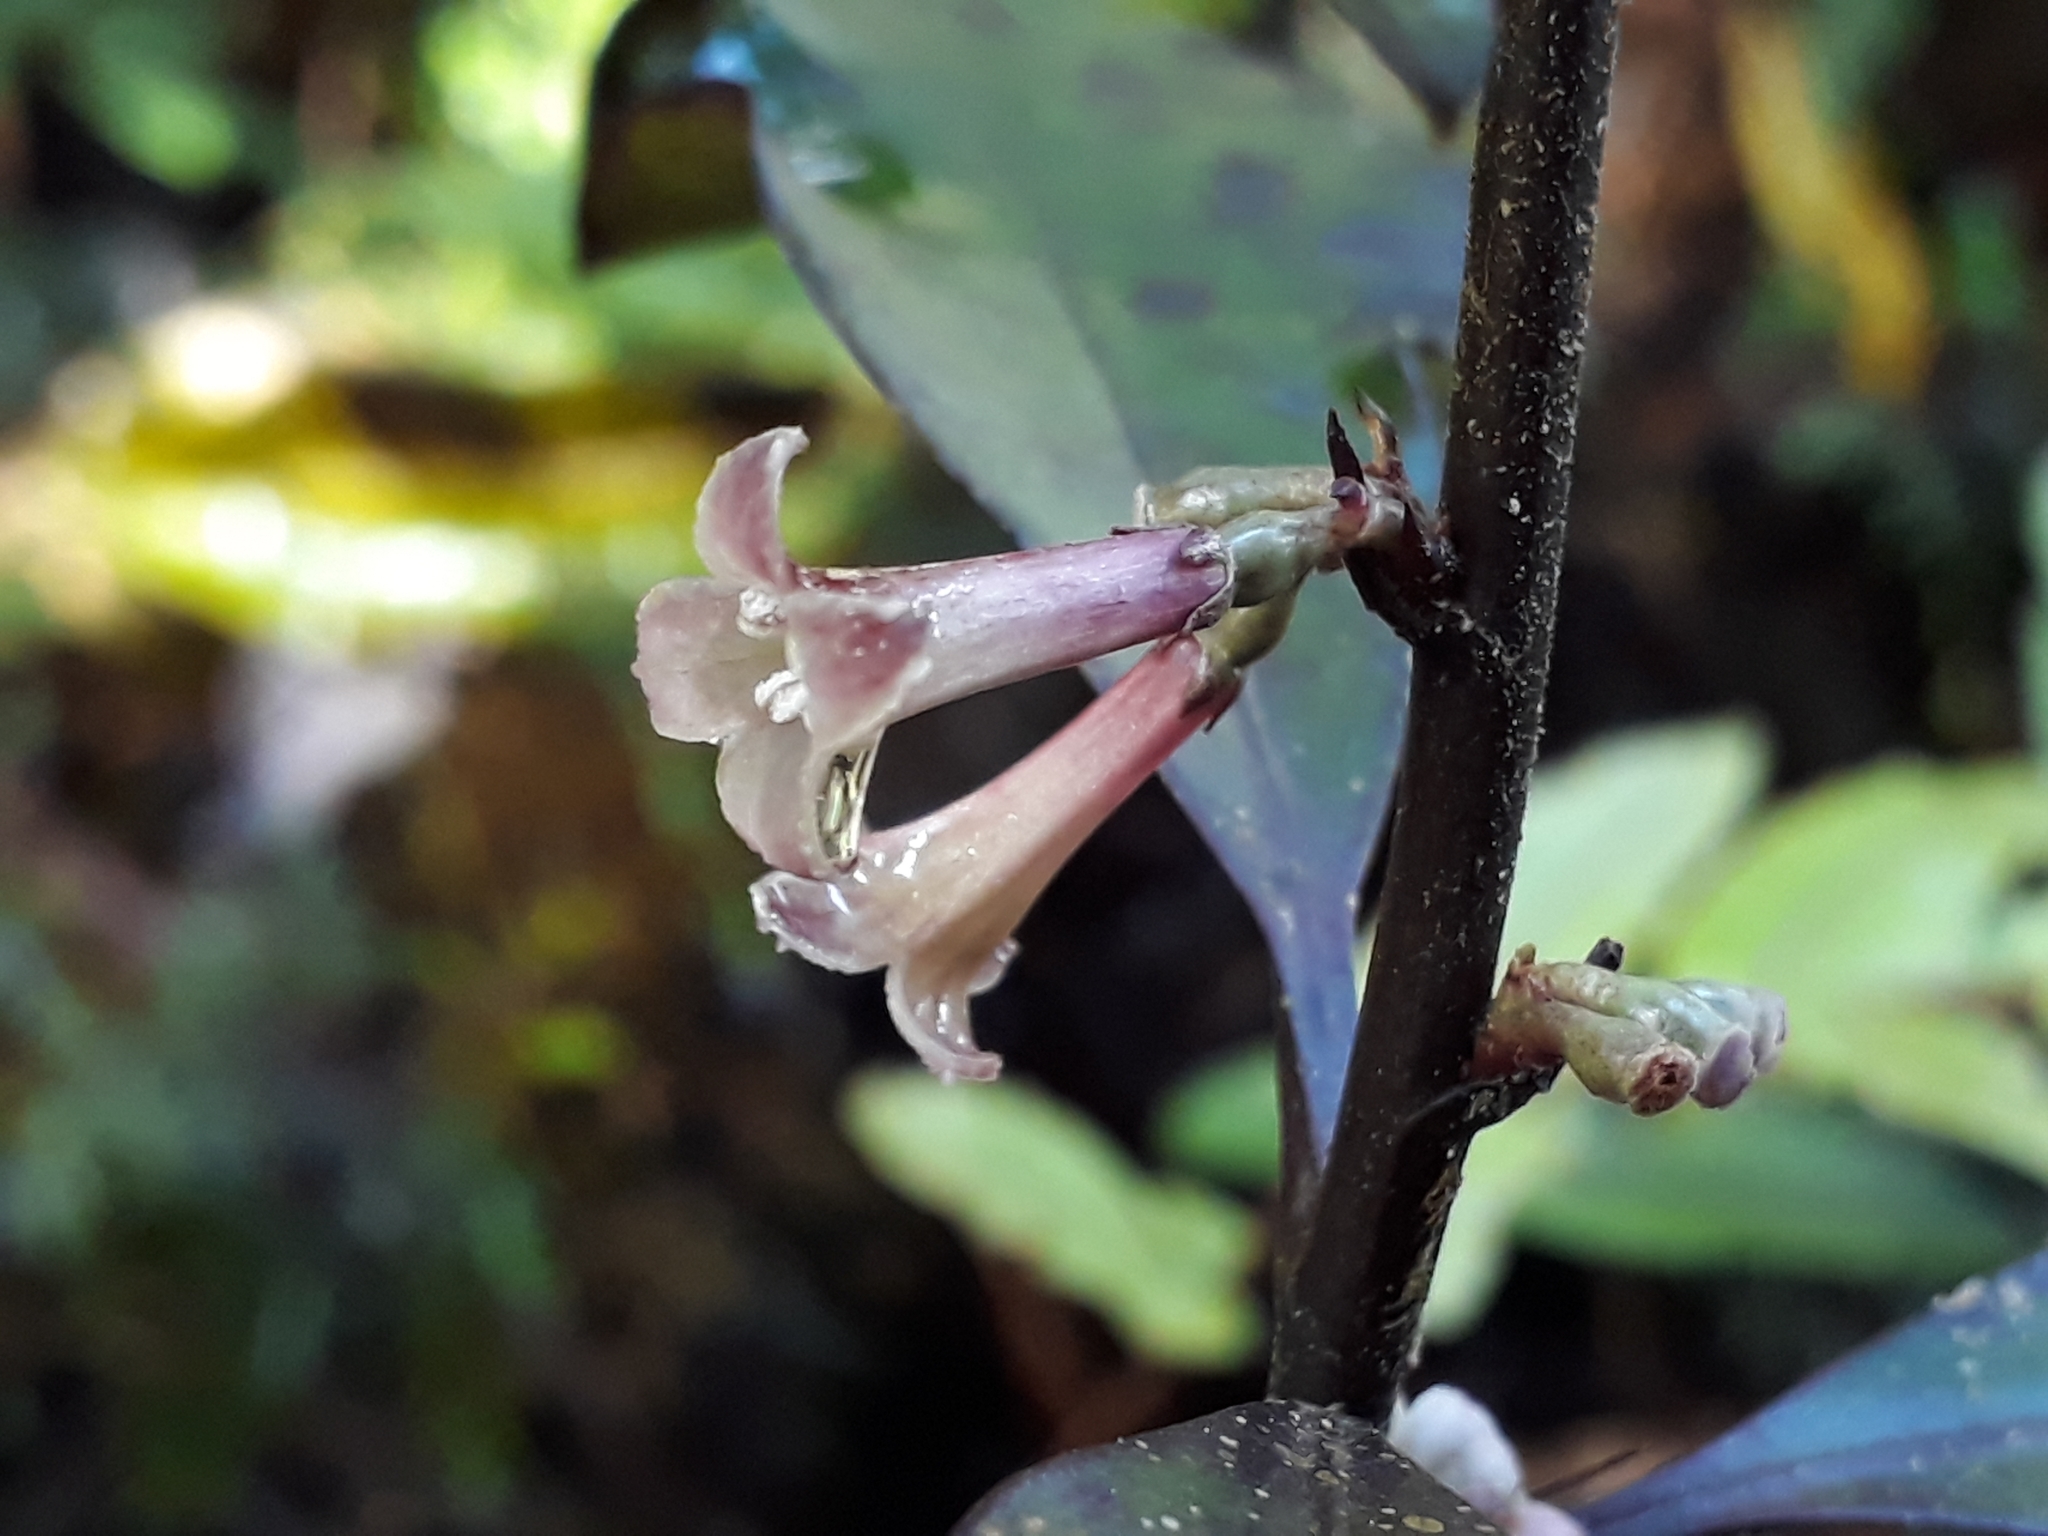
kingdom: Plantae
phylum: Tracheophyta
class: Magnoliopsida
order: Asterales
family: Alseuosmiaceae
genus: Alseuosmia
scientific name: Alseuosmia pusilla
